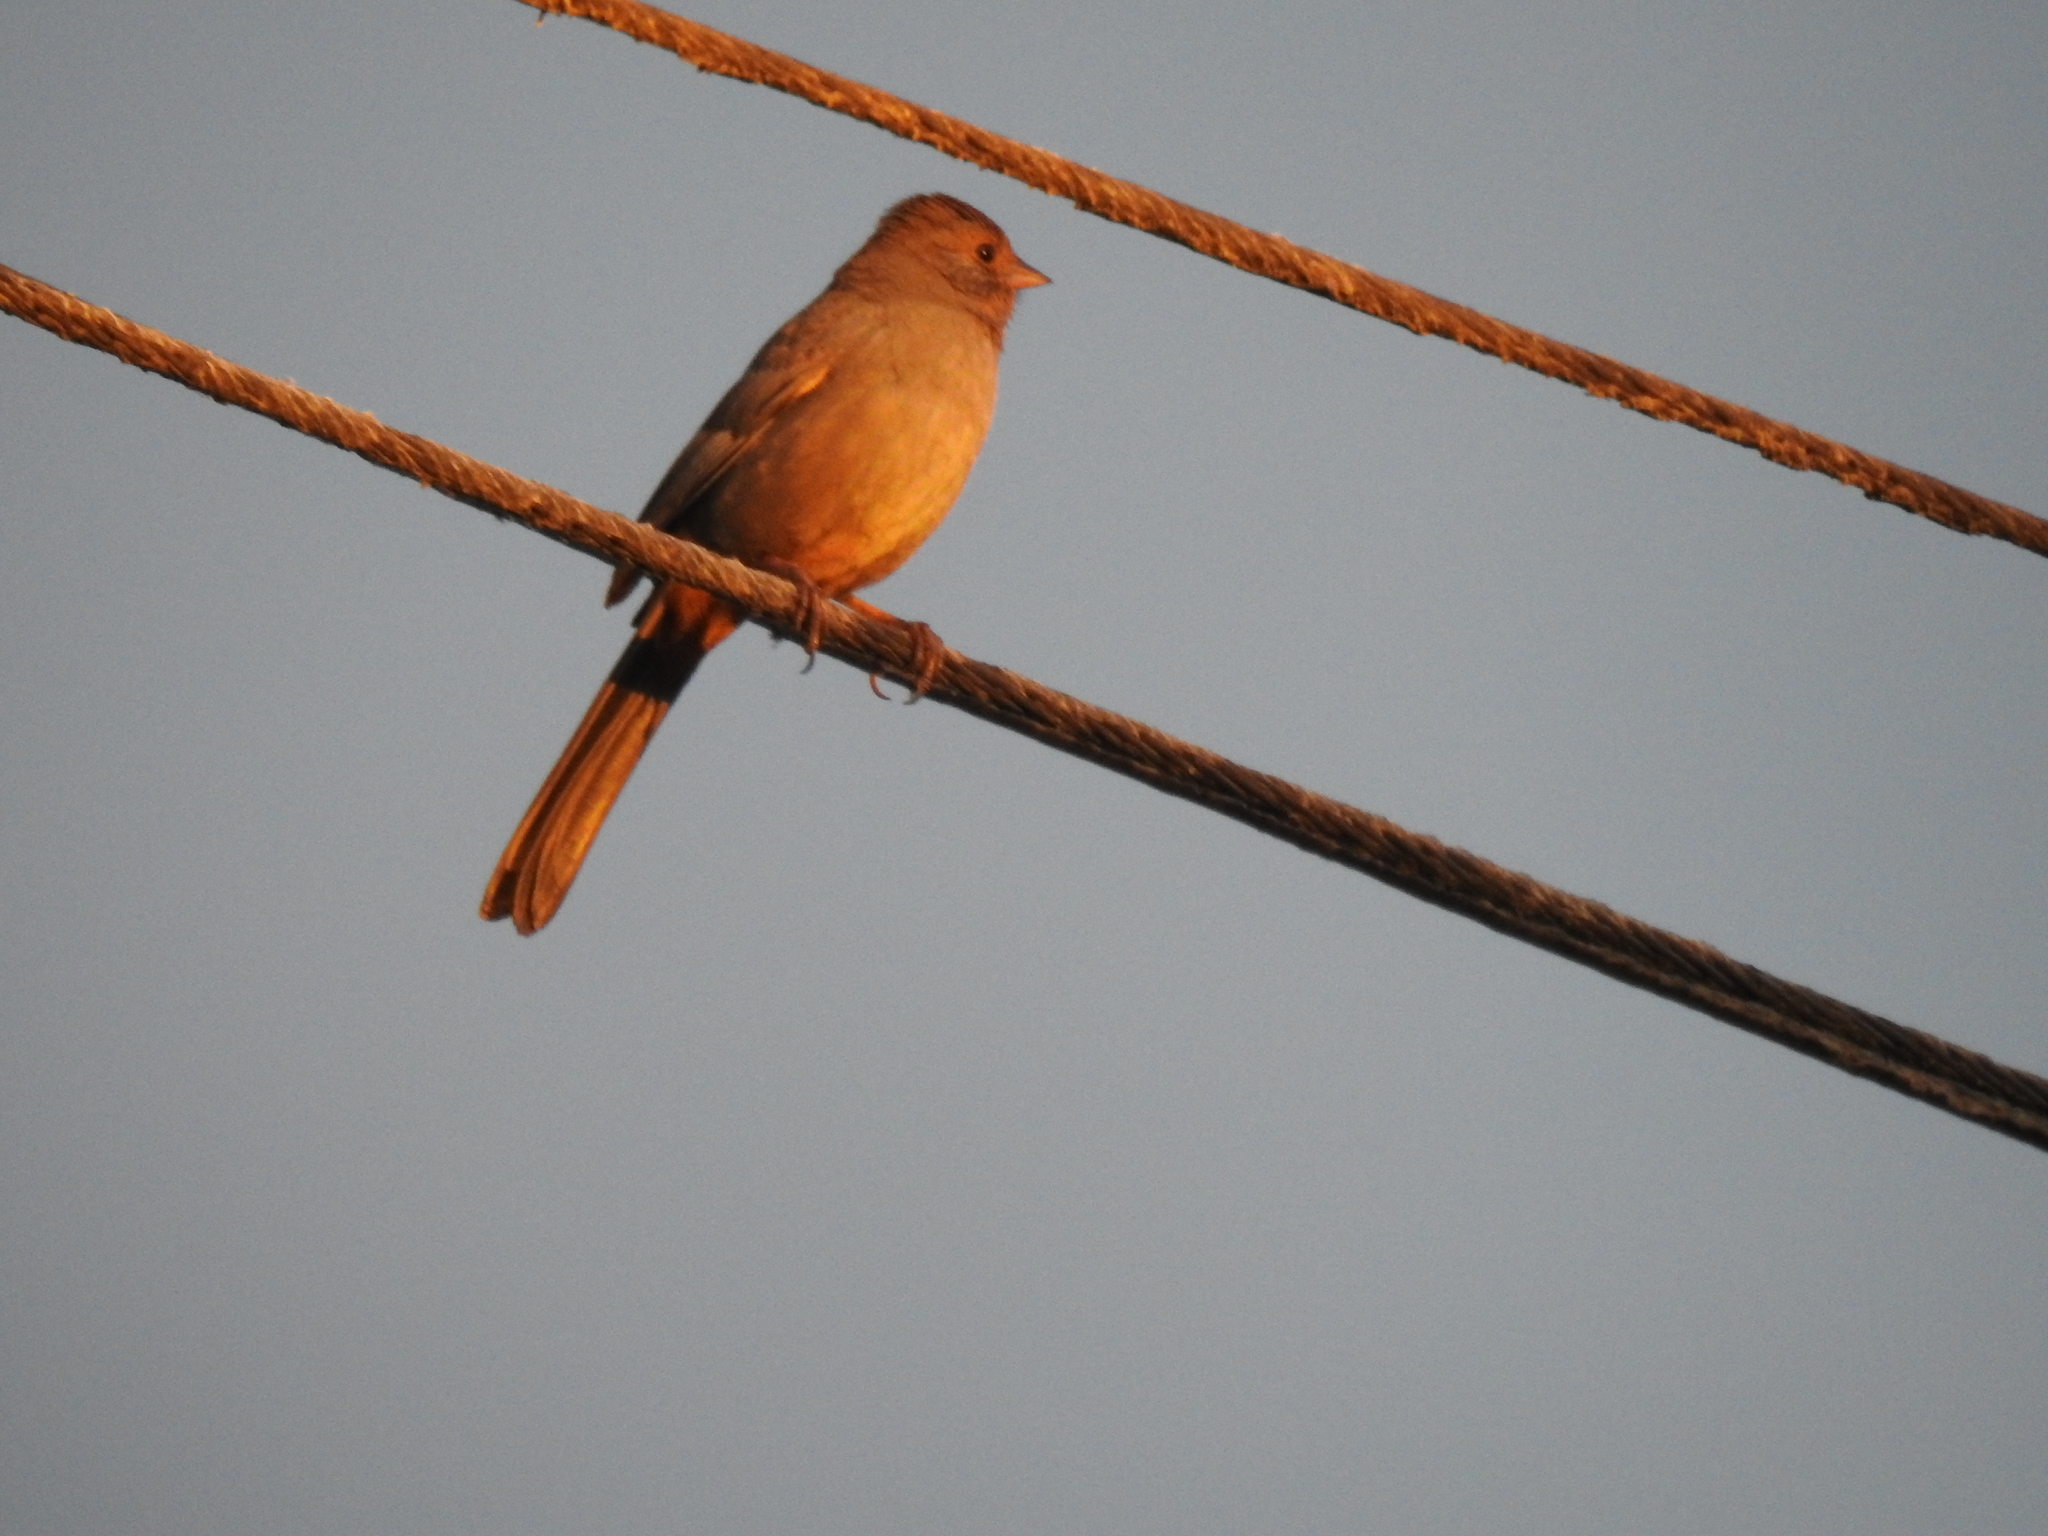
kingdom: Animalia
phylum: Chordata
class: Aves
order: Passeriformes
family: Passerellidae
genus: Melozone
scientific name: Melozone crissalis
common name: California towhee
